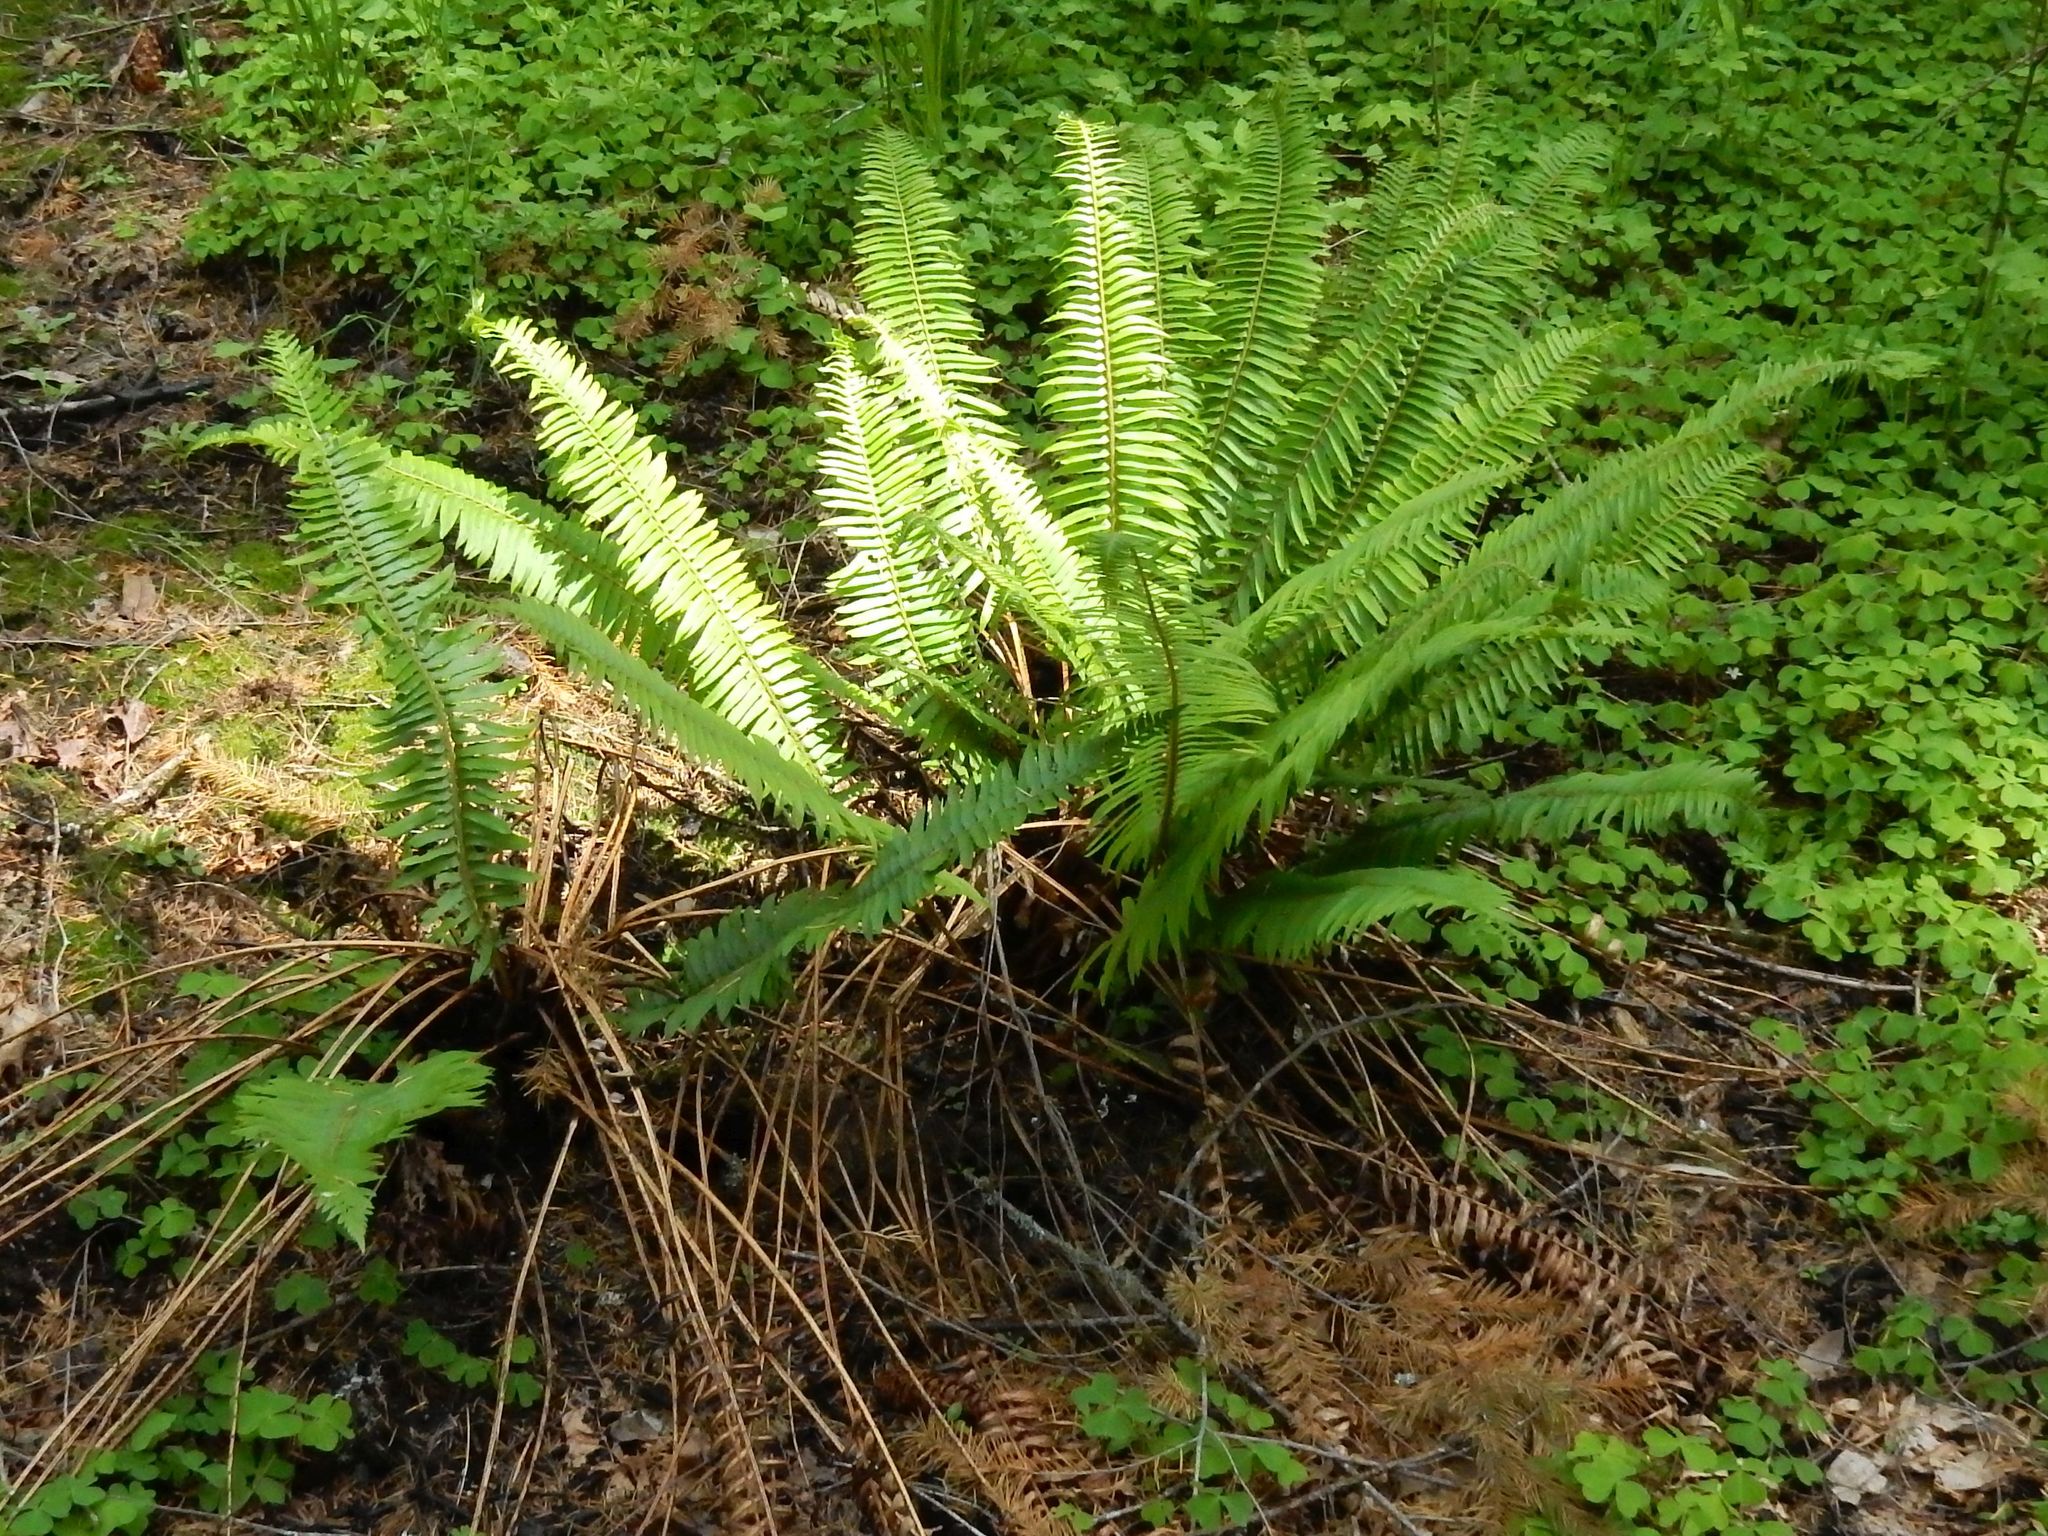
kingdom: Plantae
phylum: Tracheophyta
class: Polypodiopsida
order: Polypodiales
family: Dryopteridaceae
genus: Polystichum
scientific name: Polystichum munitum
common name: Western sword-fern
